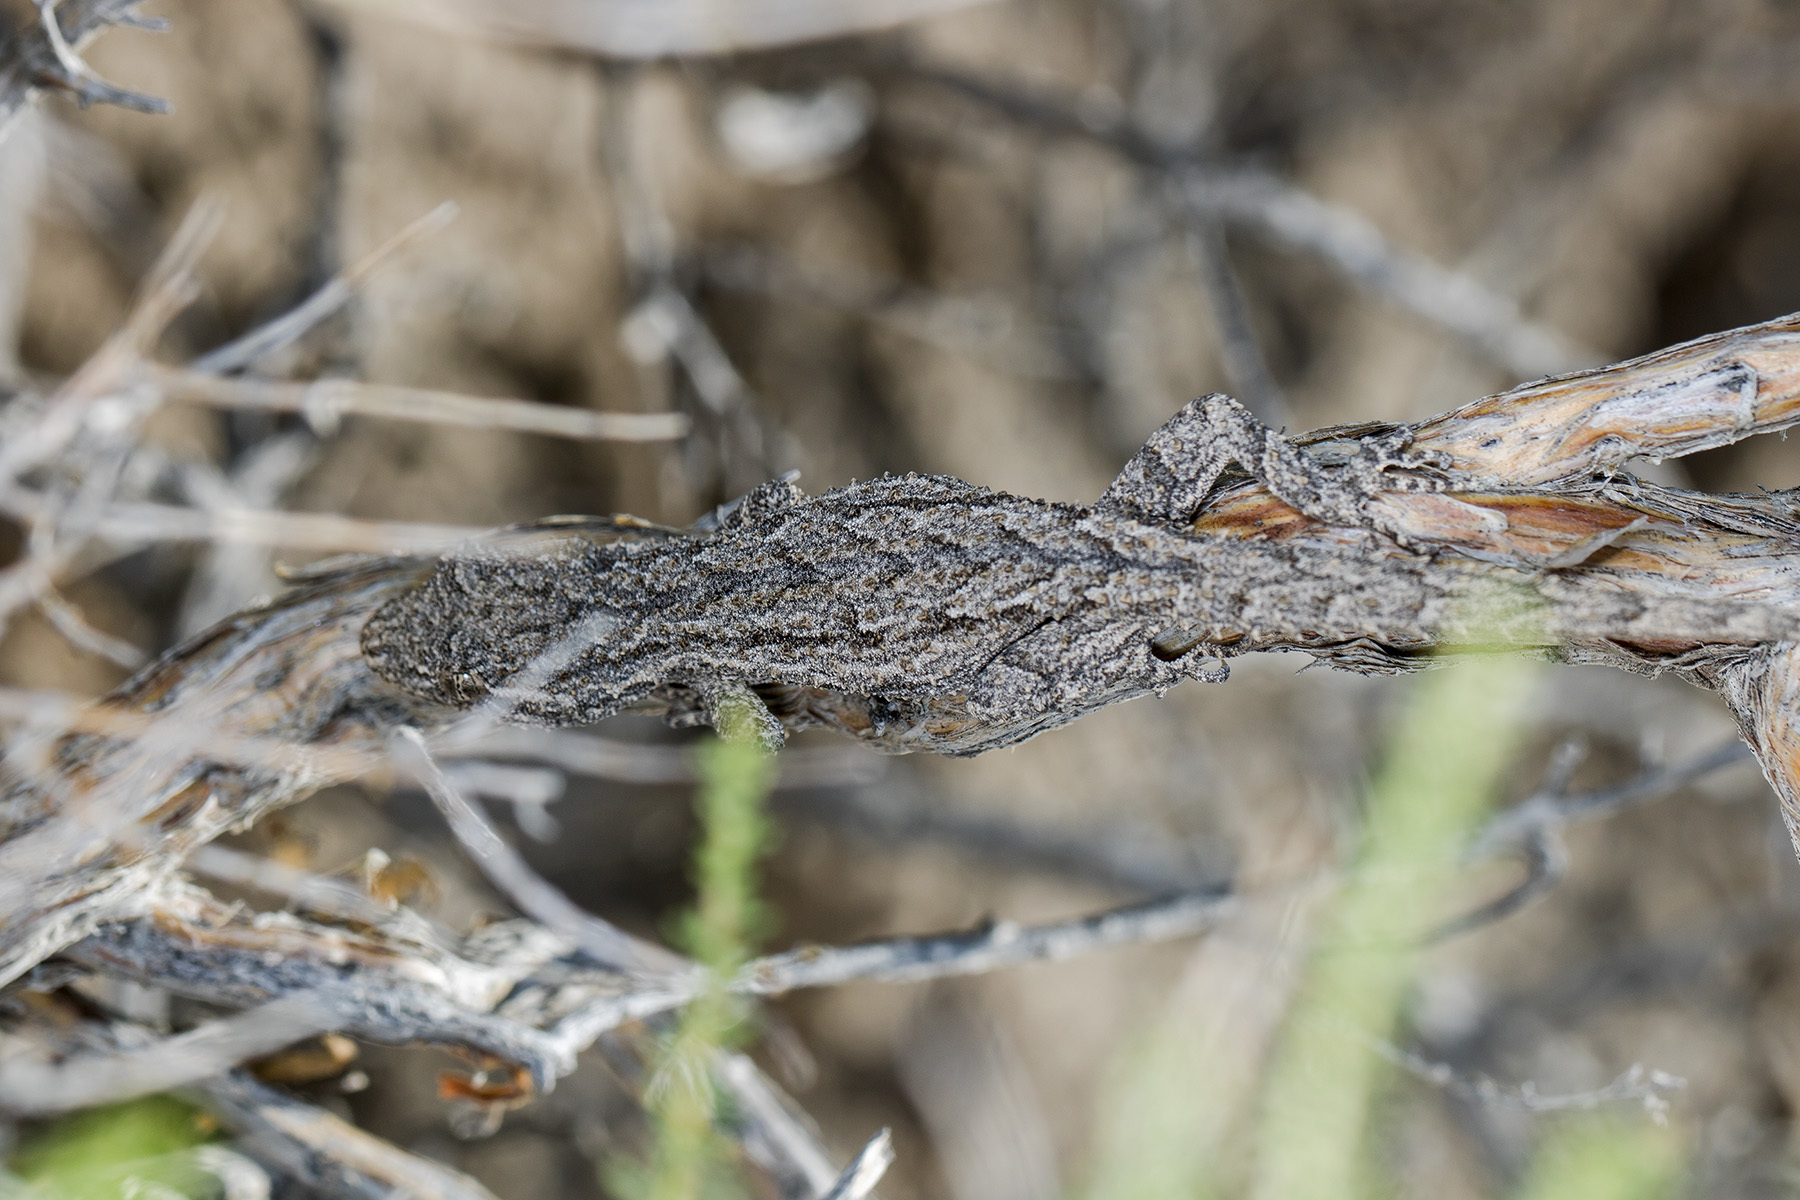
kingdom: Animalia
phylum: Chordata
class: Squamata
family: Gekkonidae
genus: Mediodactylus
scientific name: Mediodactylus russowii
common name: Grey thin-toed gecko
